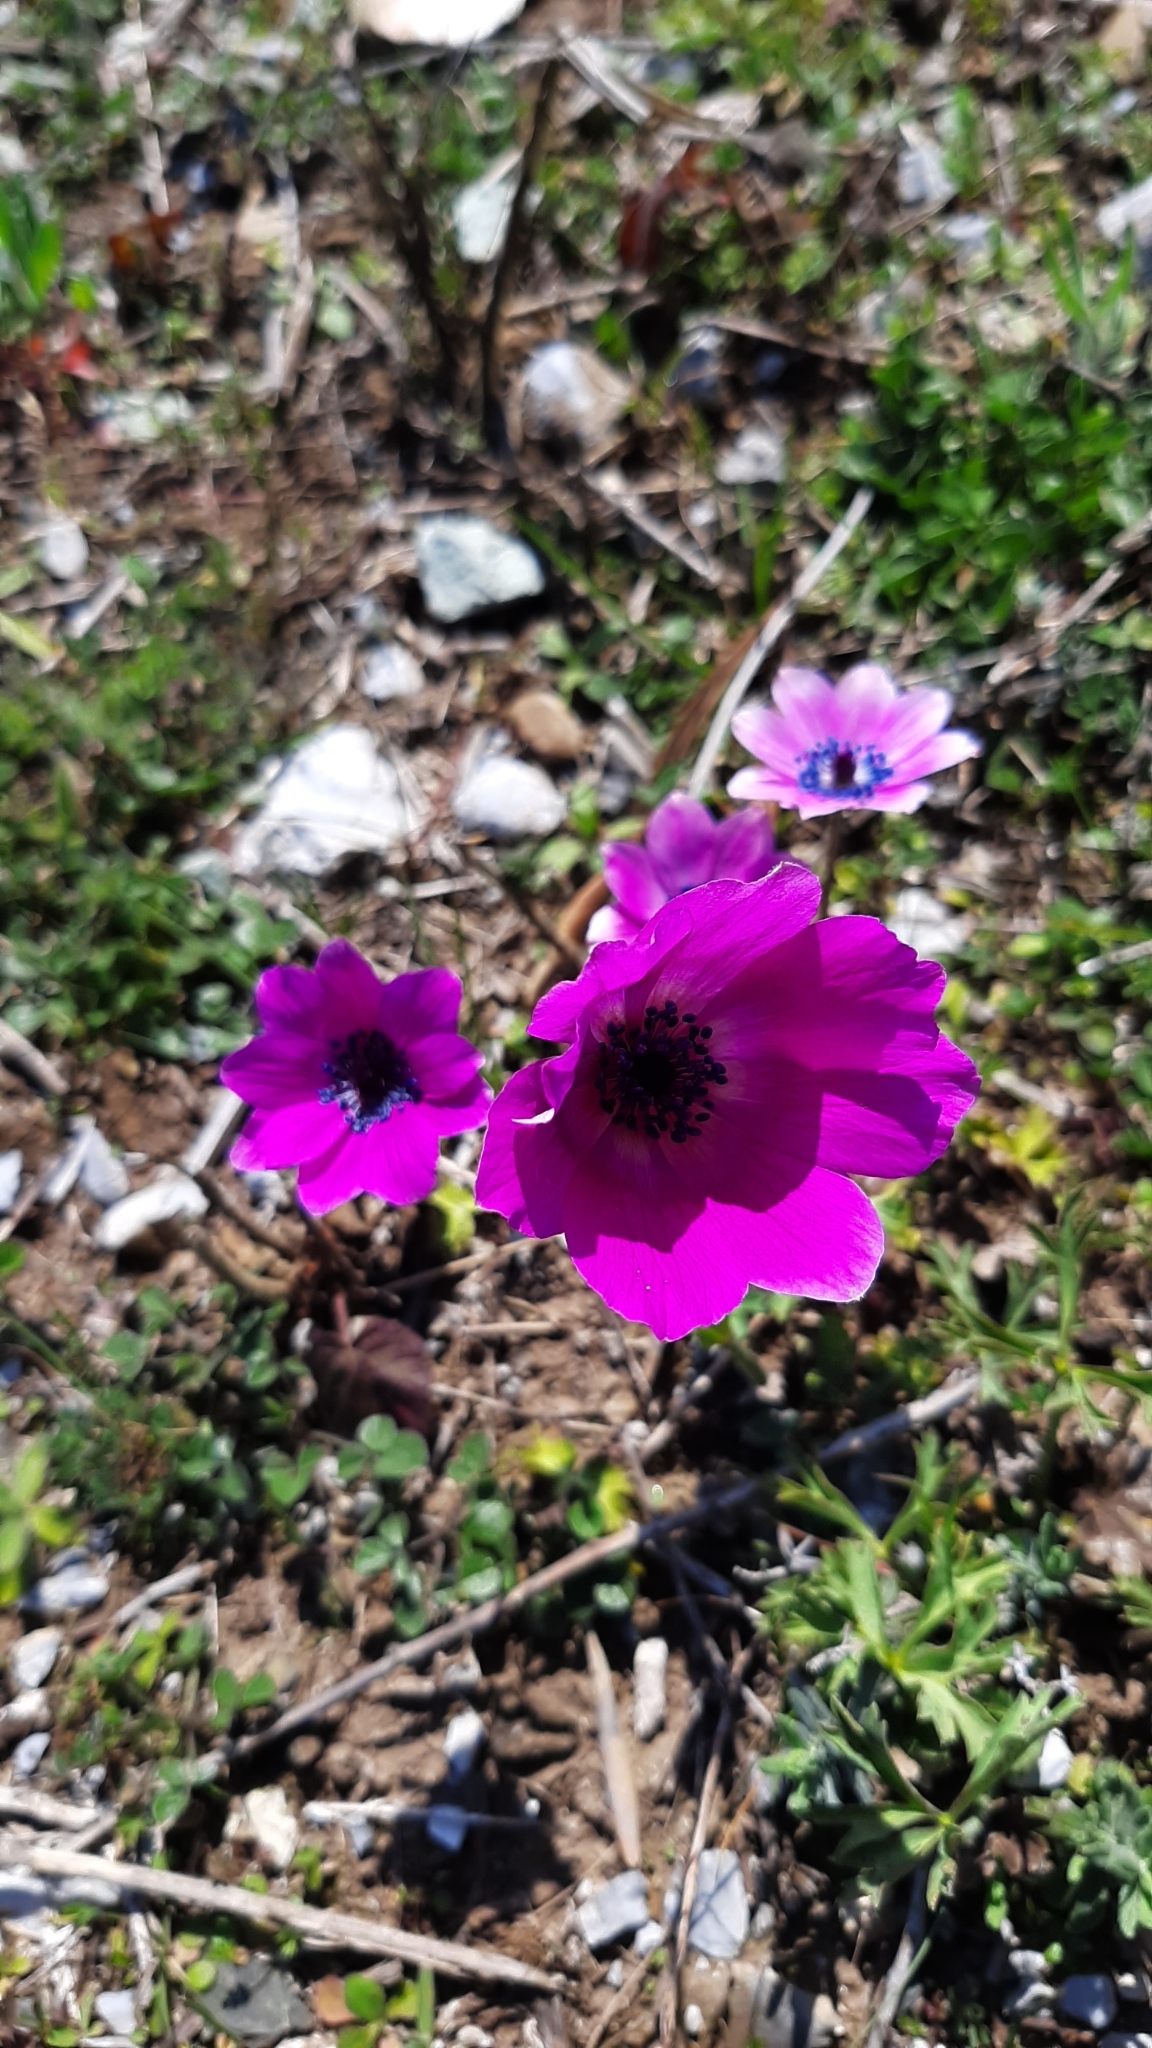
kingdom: Plantae
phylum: Tracheophyta
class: Magnoliopsida
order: Ranunculales
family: Ranunculaceae
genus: Anemone
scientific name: Anemone pavonina
